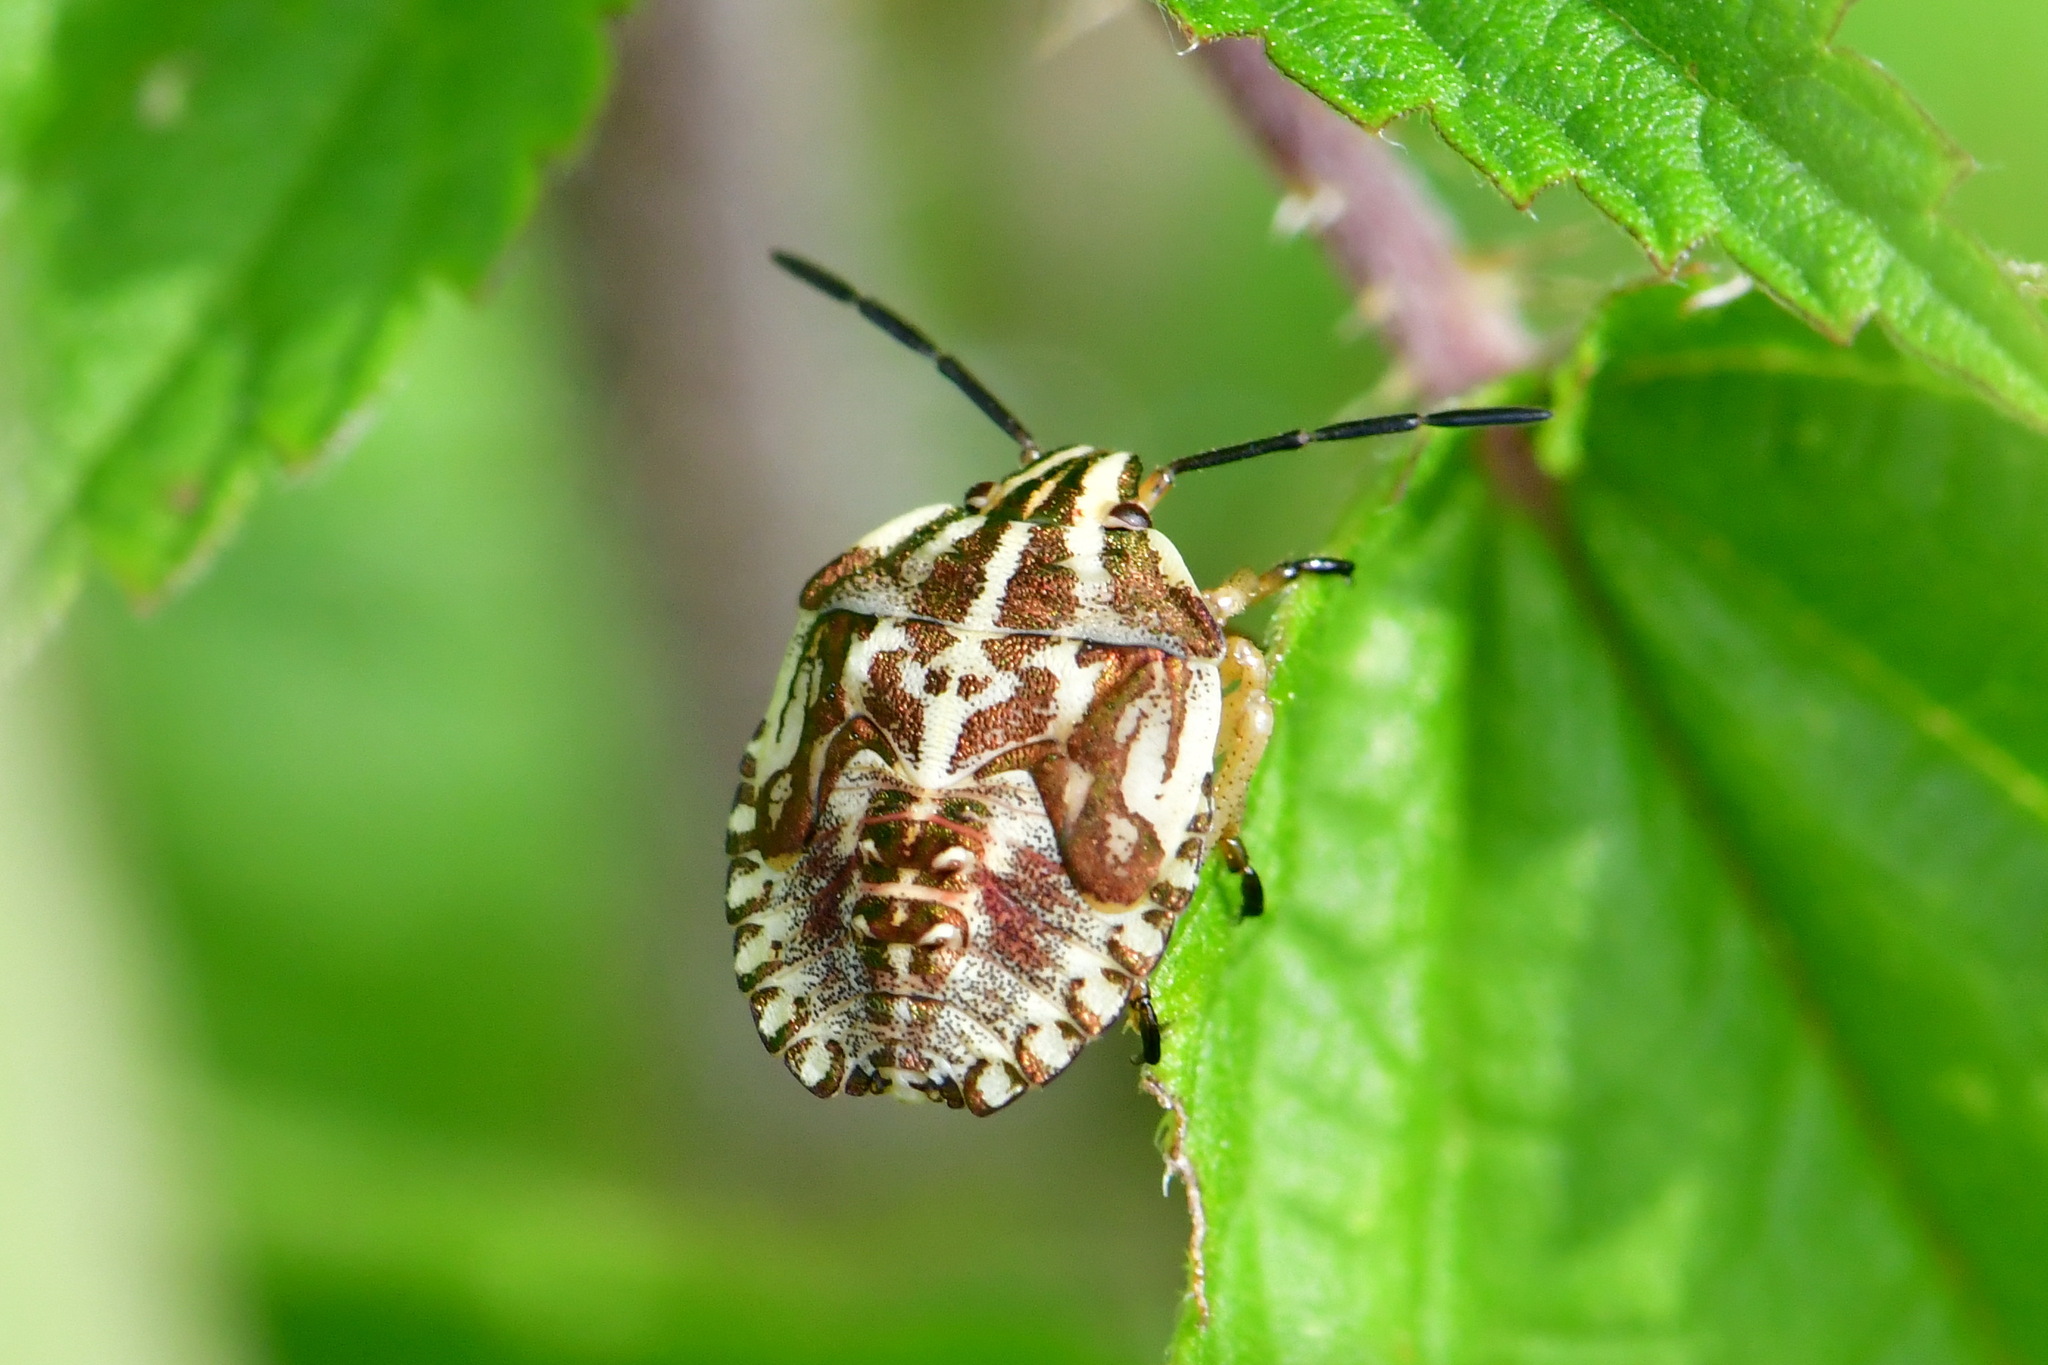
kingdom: Animalia
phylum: Arthropoda
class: Insecta
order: Hemiptera
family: Pentatomidae
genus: Carpocoris
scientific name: Carpocoris purpureipennis
